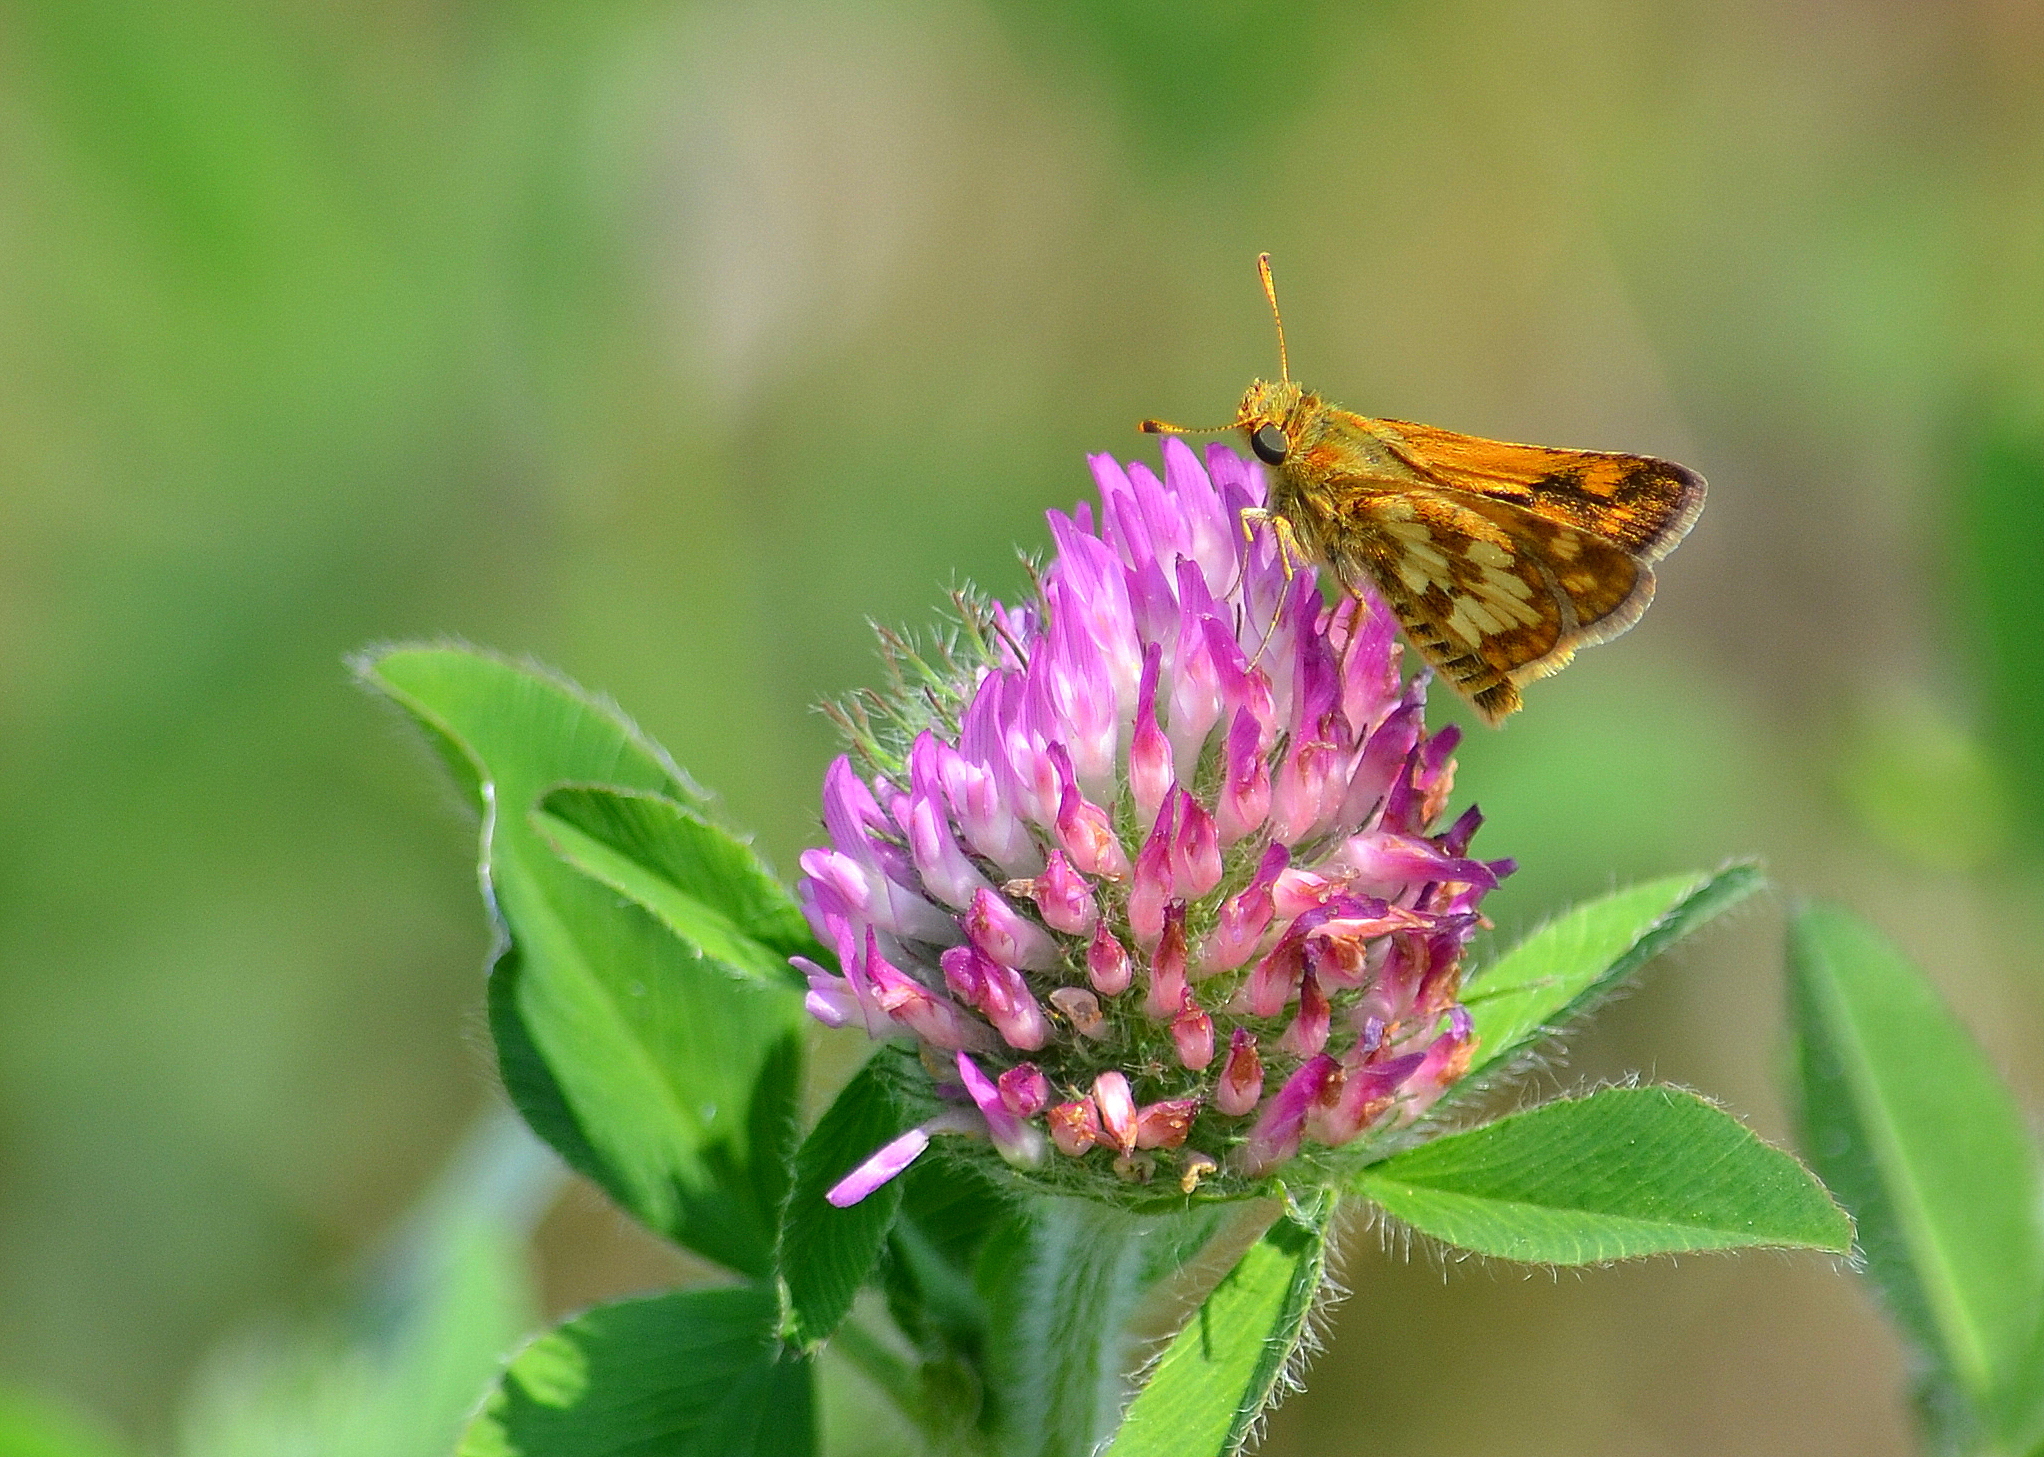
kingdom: Animalia
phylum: Arthropoda
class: Insecta
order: Lepidoptera
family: Hesperiidae
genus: Polites
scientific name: Polites coras
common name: Peck's skipper
